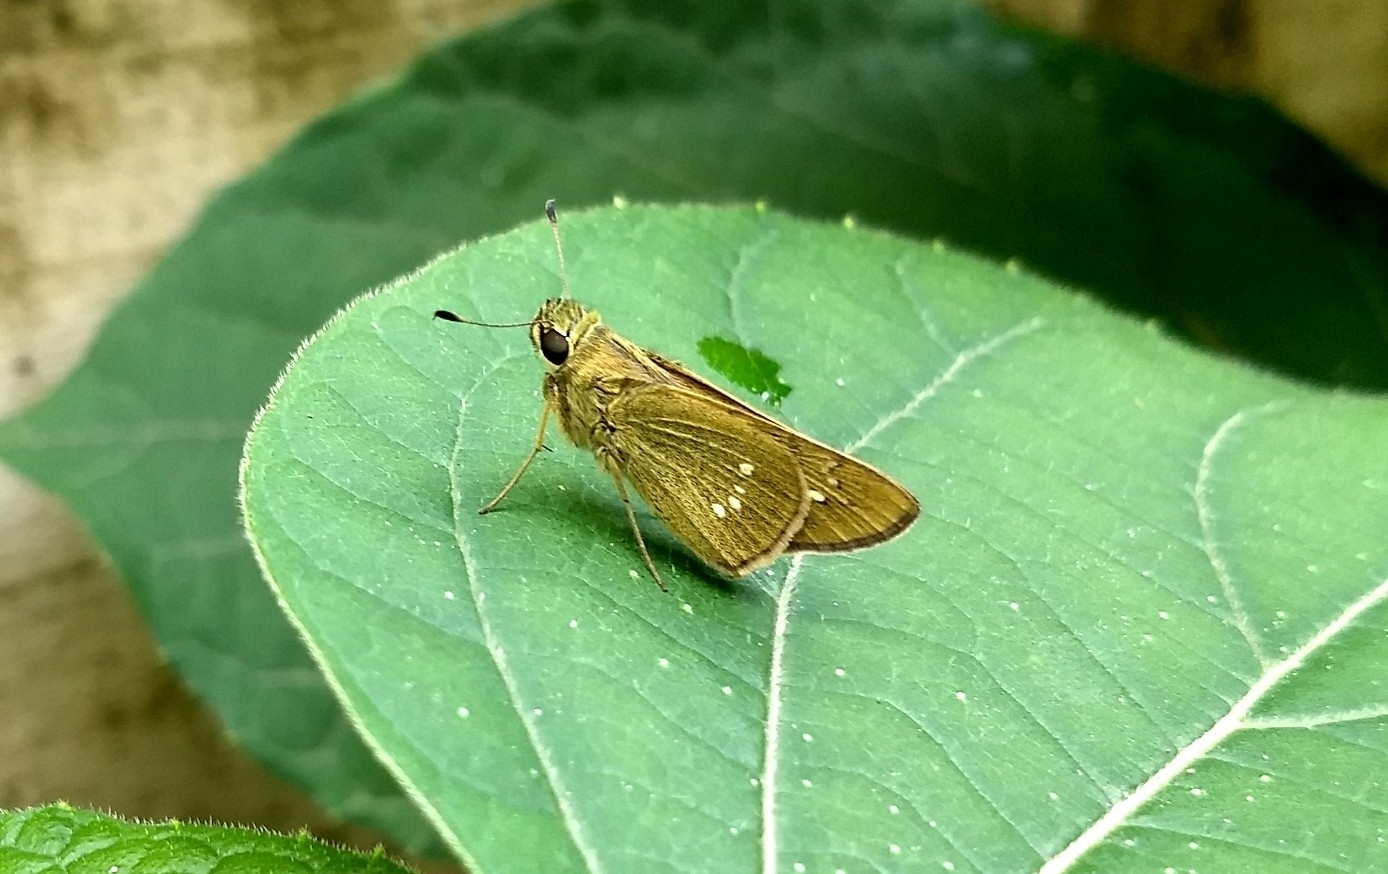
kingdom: Animalia
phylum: Arthropoda
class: Insecta
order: Lepidoptera
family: Hesperiidae
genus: Borbo
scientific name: Borbo cinnara
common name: Formosan swift
